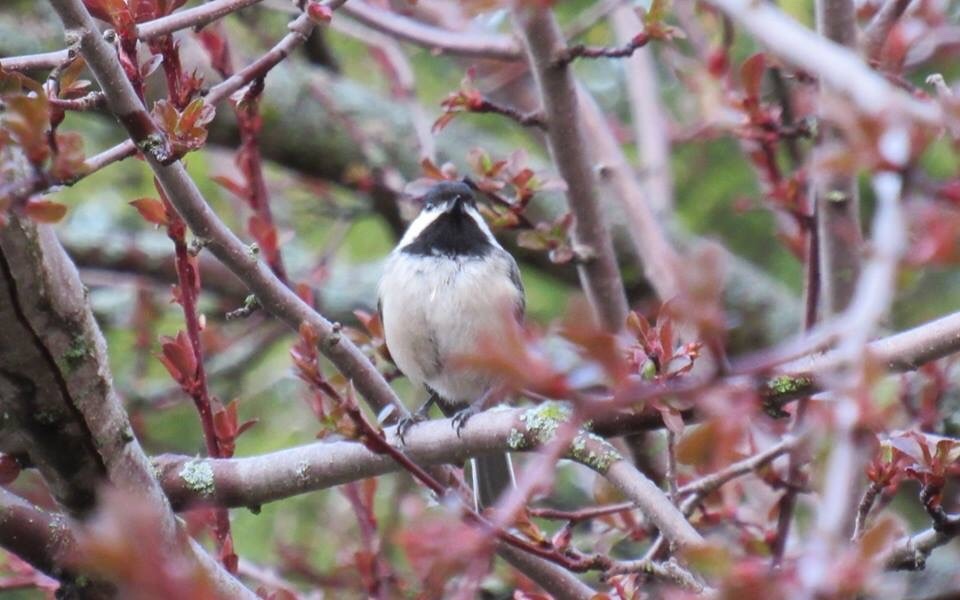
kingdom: Animalia
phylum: Chordata
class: Aves
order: Passeriformes
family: Paridae
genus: Poecile
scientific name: Poecile atricapillus
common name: Black-capped chickadee
